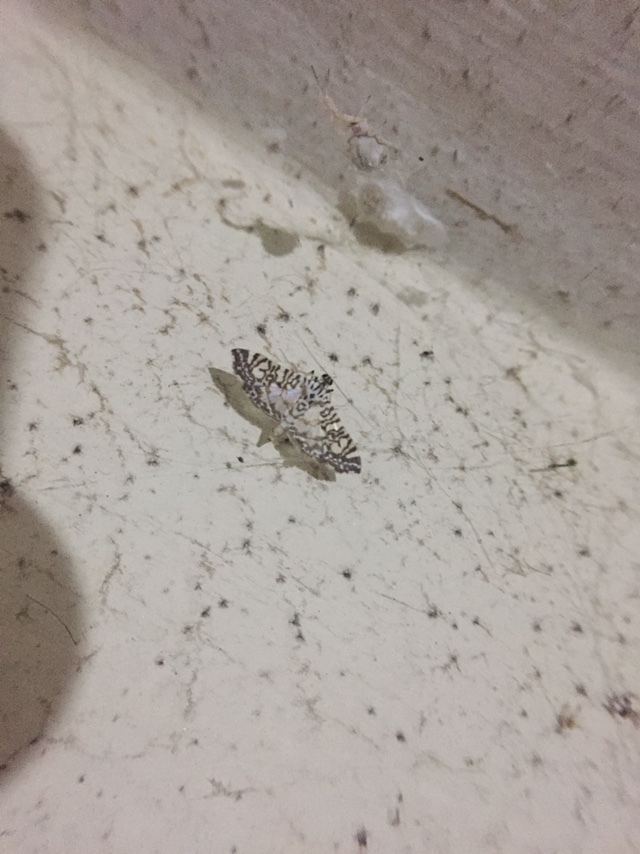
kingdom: Animalia
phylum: Arthropoda
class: Insecta
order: Lepidoptera
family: Crambidae
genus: Glyphodes
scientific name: Glyphodes onychinalis
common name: Swan plant moth
